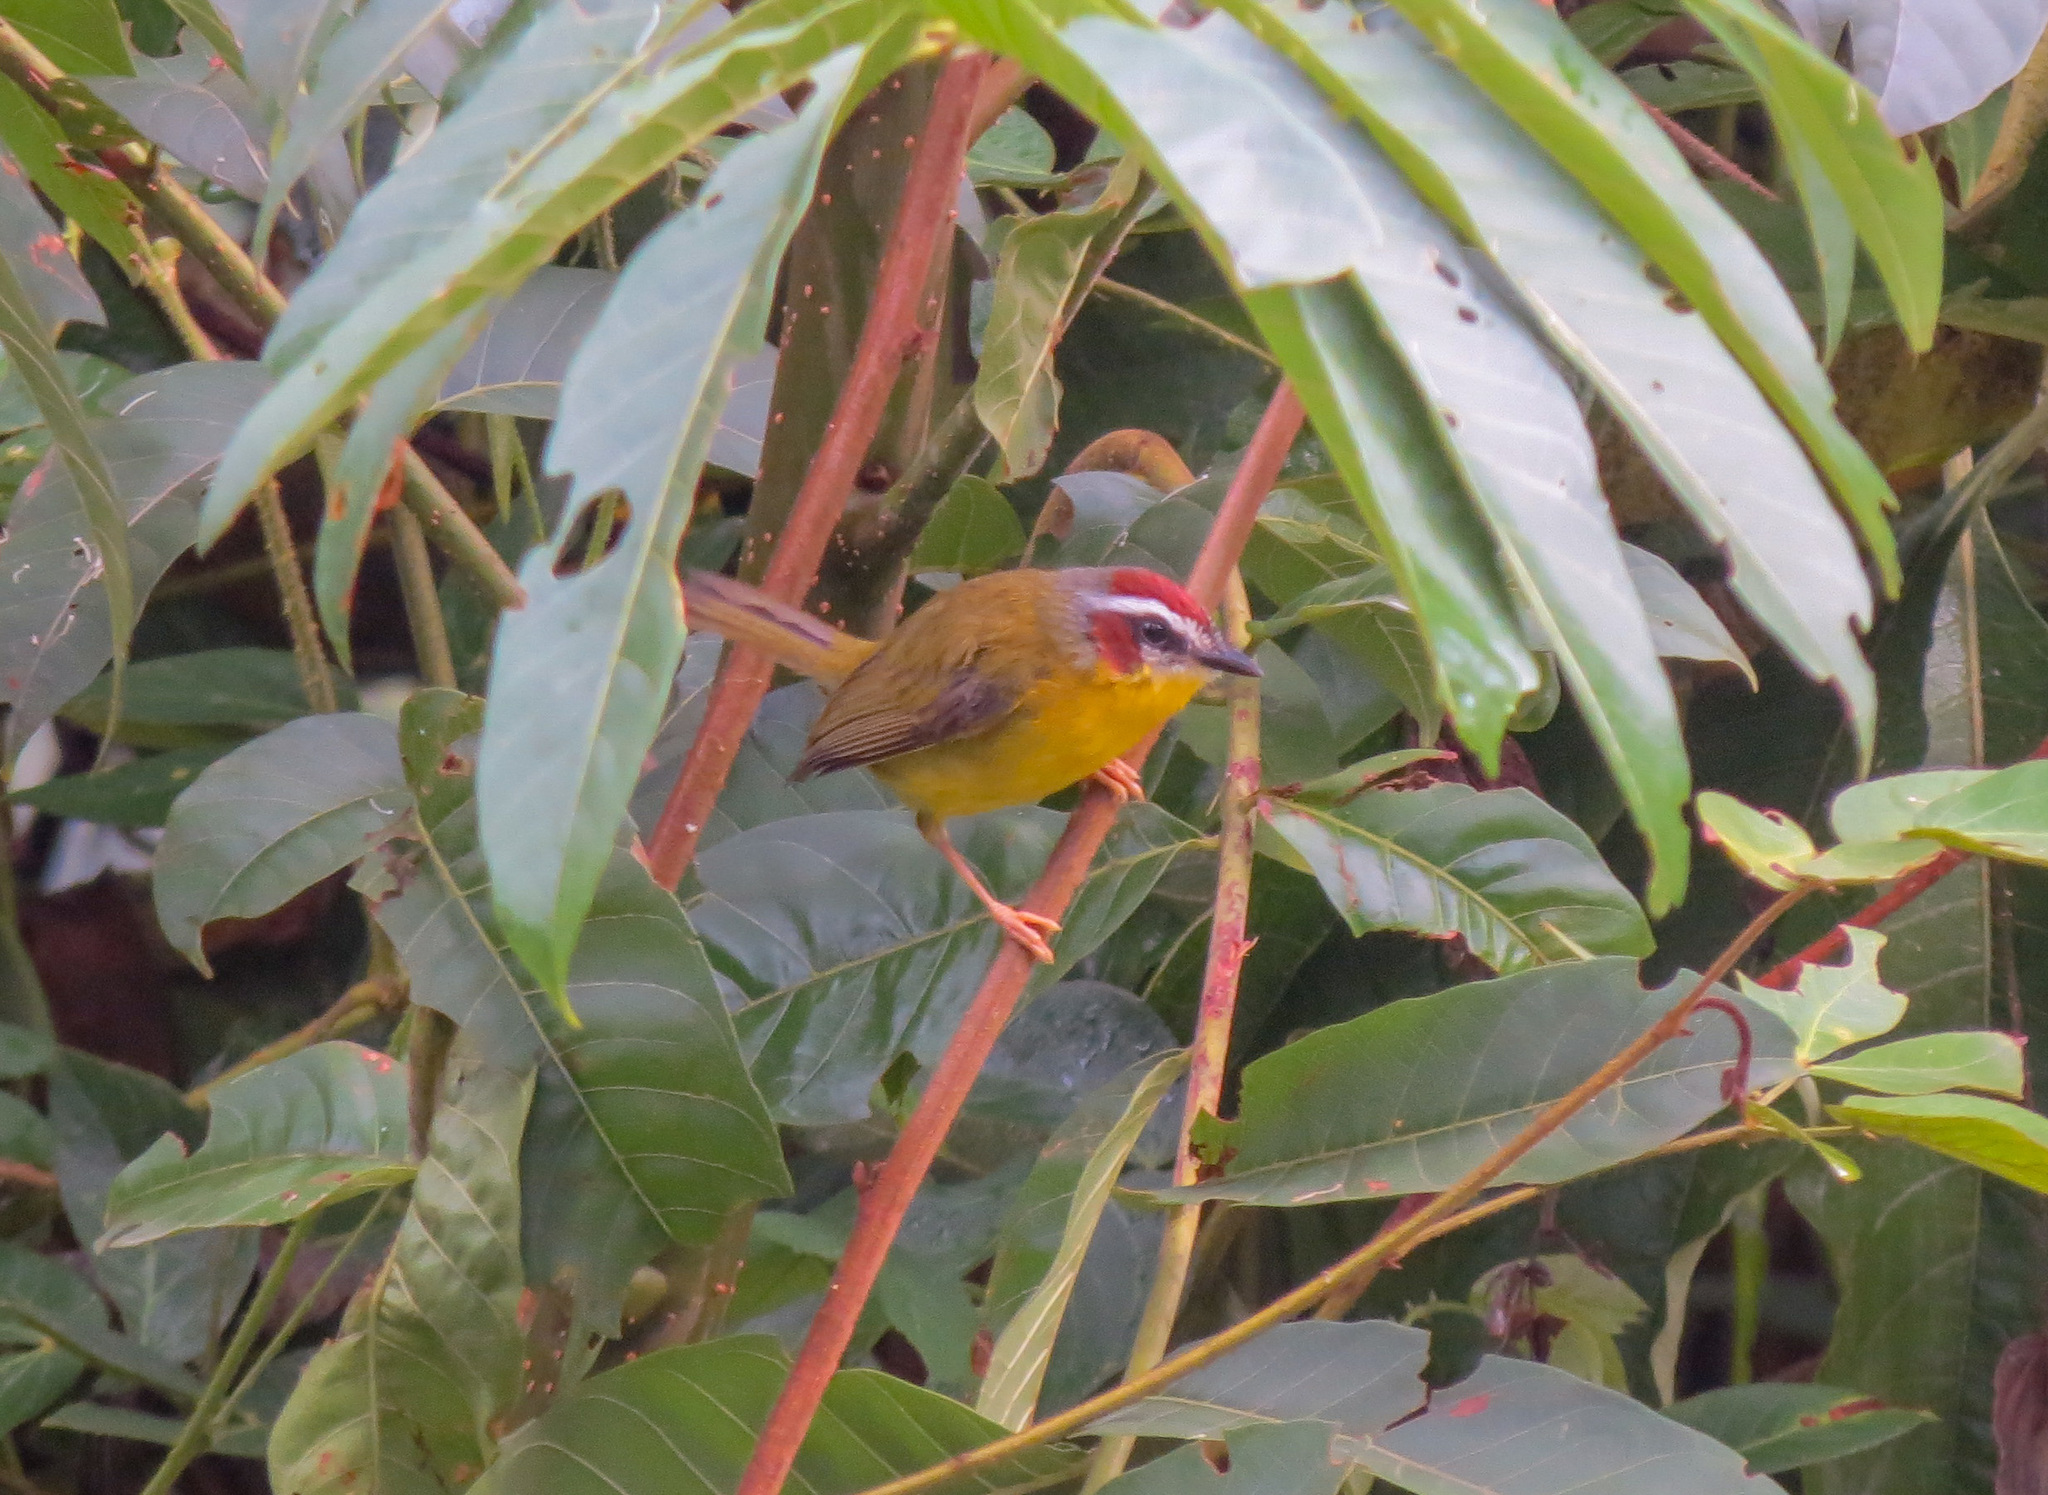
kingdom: Animalia
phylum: Chordata
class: Aves
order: Passeriformes
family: Parulidae
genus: Basileuterus
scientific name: Basileuterus rufifrons
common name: Rufous-capped warbler
